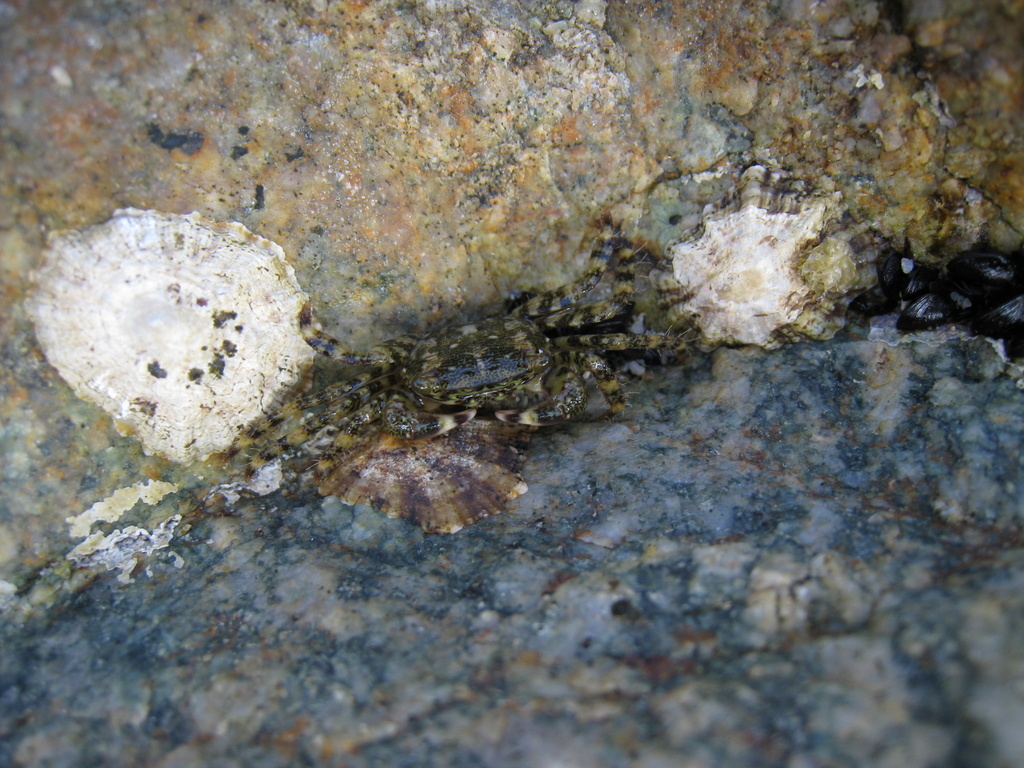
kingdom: Animalia
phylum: Arthropoda
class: Malacostraca
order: Decapoda
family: Grapsidae
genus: Pachygrapsus
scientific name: Pachygrapsus marmoratus
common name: Marbled rock crab
